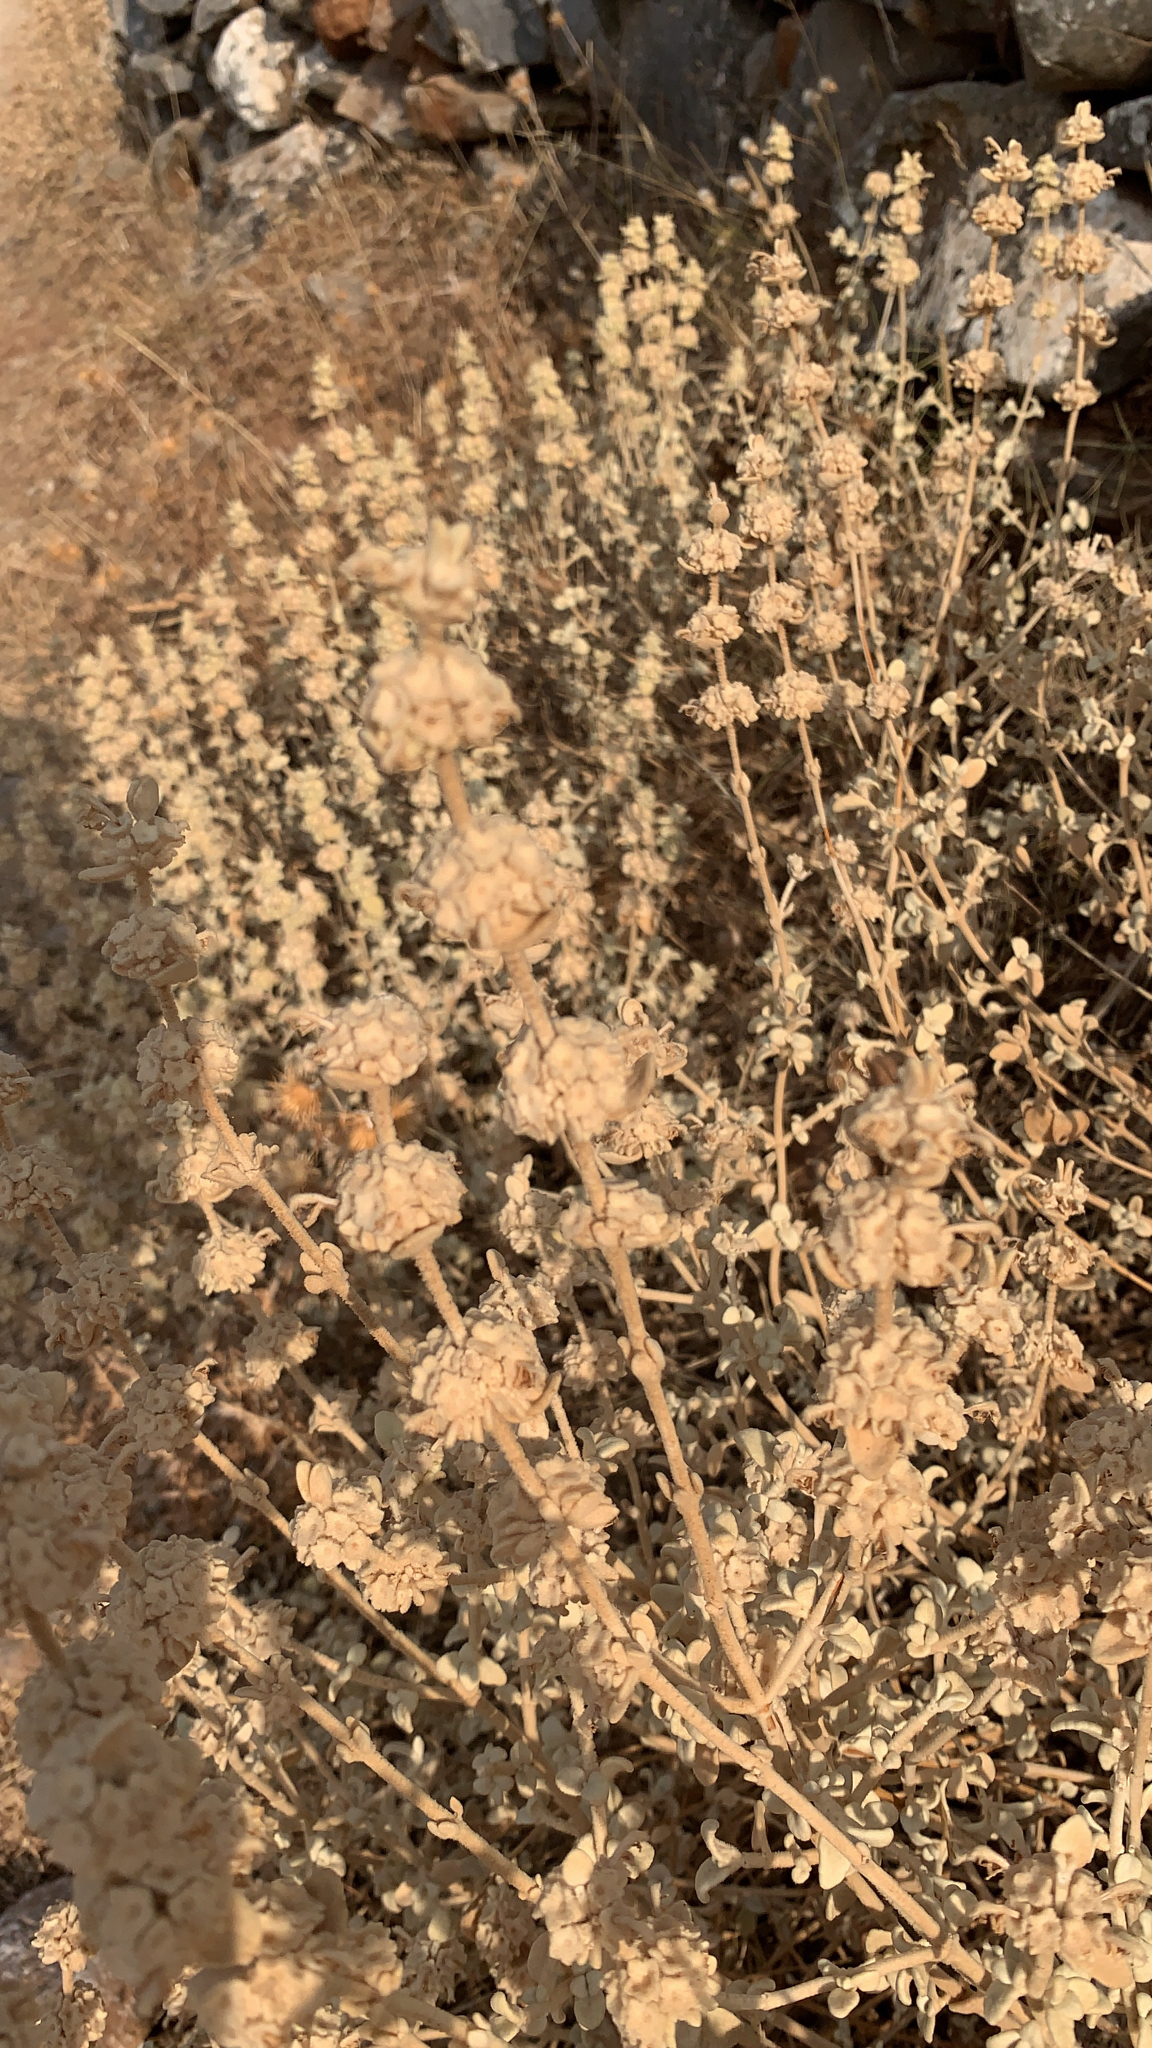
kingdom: Plantae
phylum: Tracheophyta
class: Magnoliopsida
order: Lamiales
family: Lamiaceae
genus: Pseudodictamnus
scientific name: Pseudodictamnus mediterraneus
